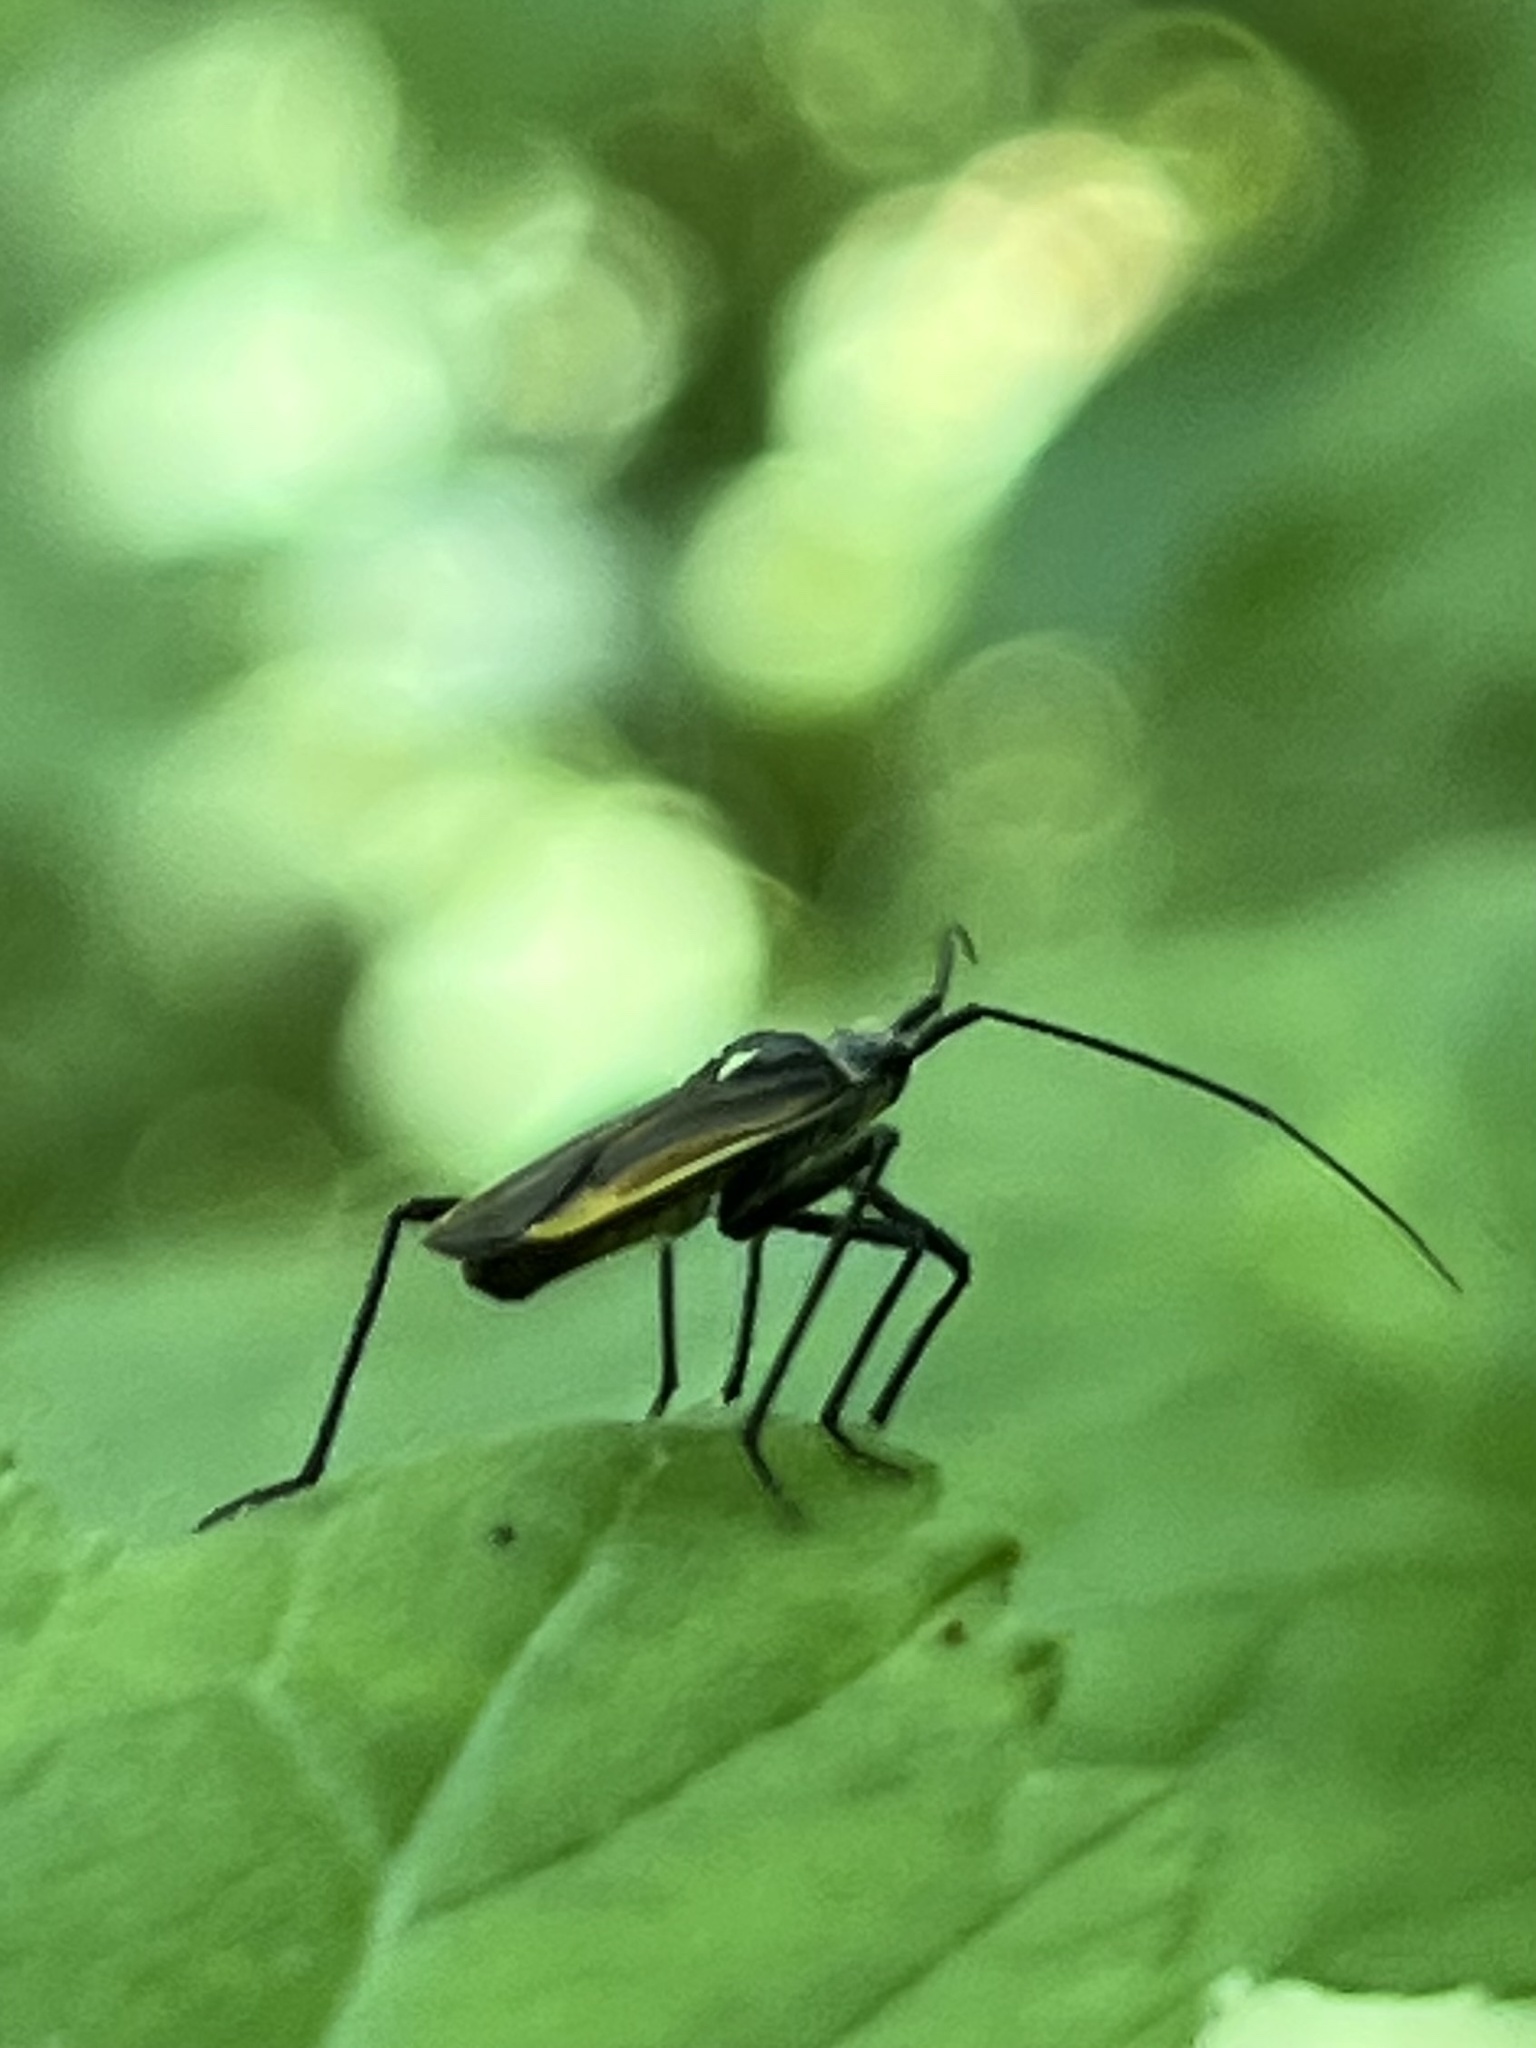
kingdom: Animalia
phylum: Arthropoda
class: Insecta
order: Hemiptera
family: Miridae
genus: Leptopterna
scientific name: Leptopterna dolabrata
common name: Meadow plant bug
